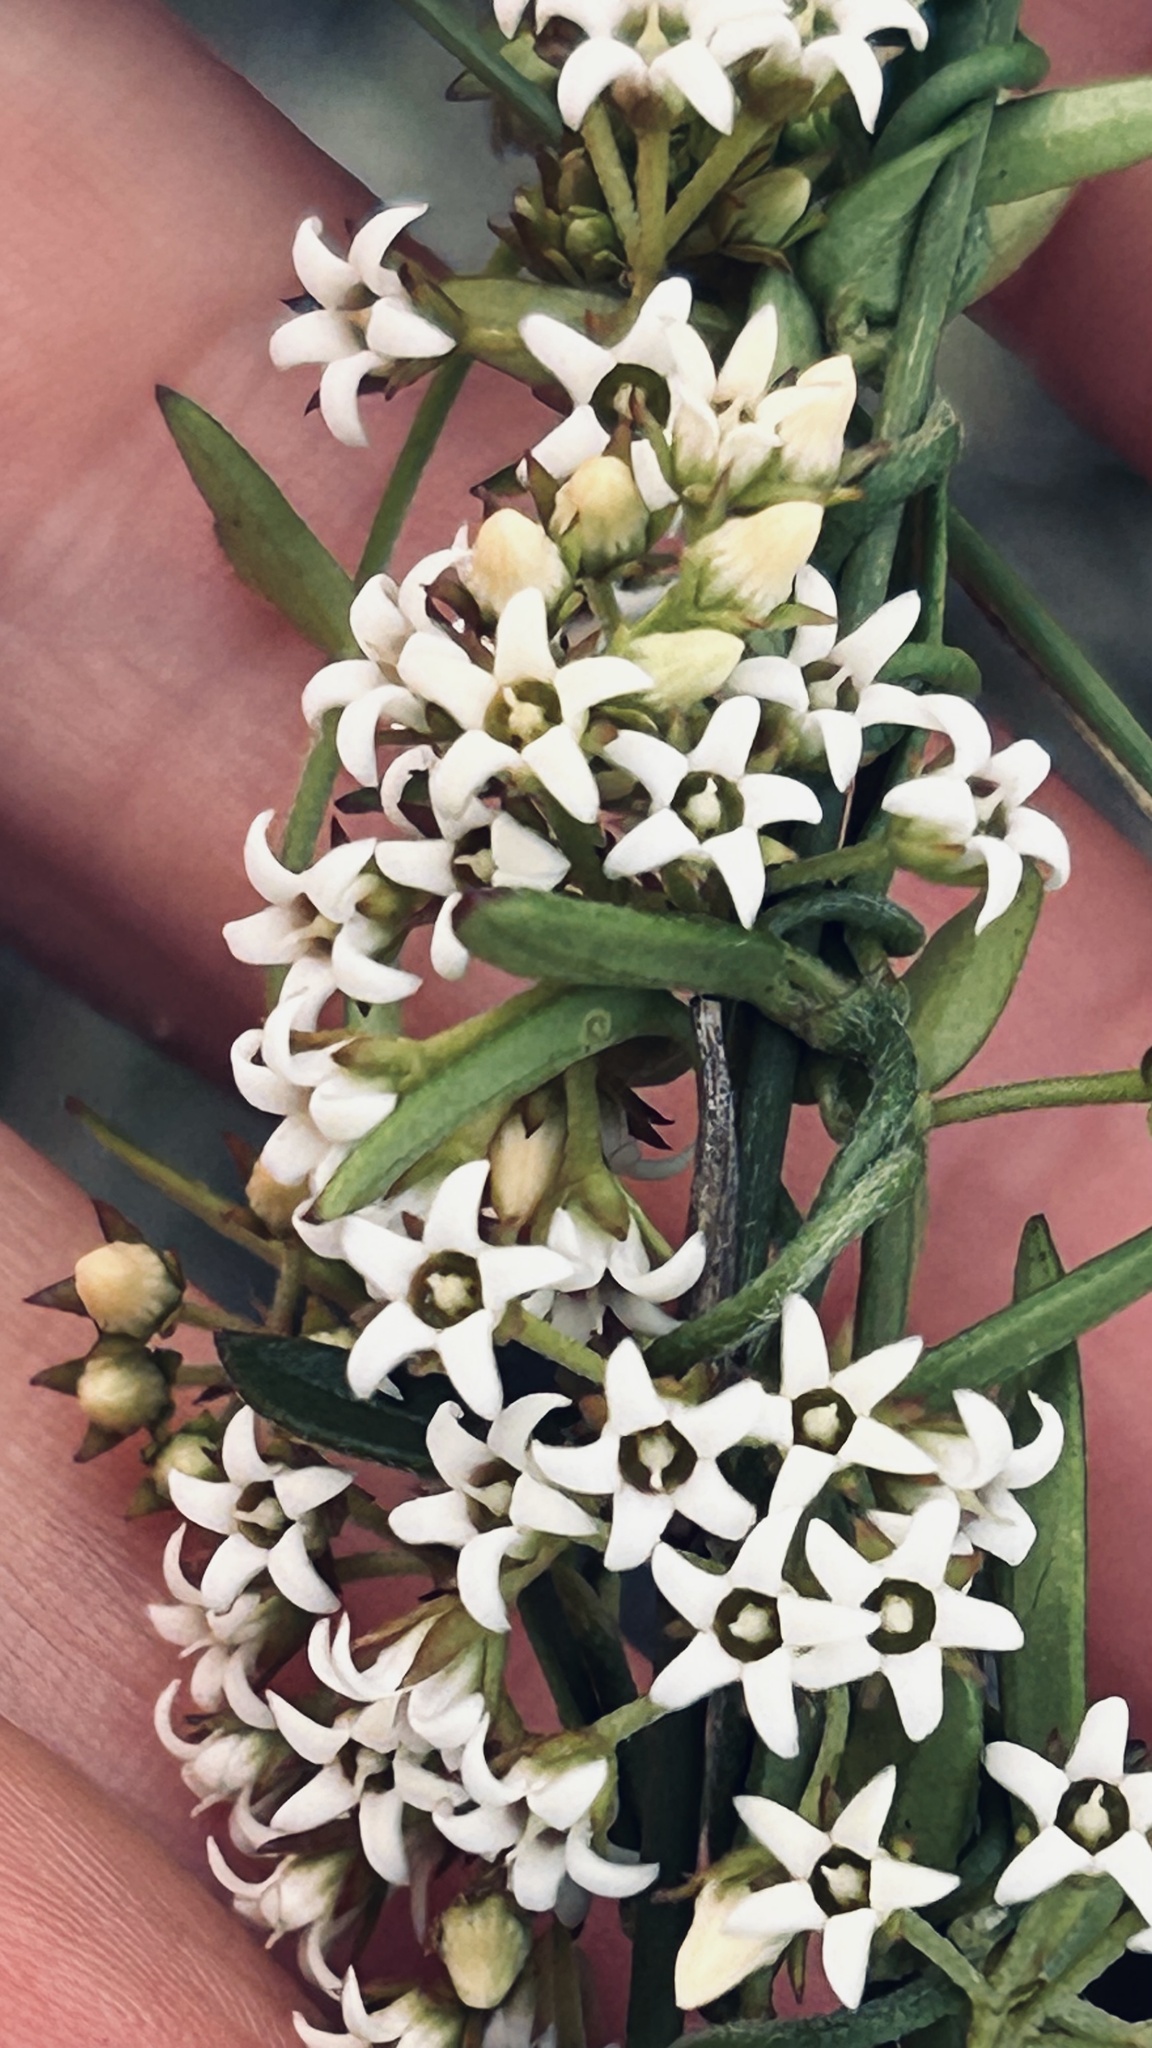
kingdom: Plantae
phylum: Tracheophyta
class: Magnoliopsida
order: Gentianales
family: Apocynaceae
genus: Astephanus
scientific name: Astephanus triflorus
